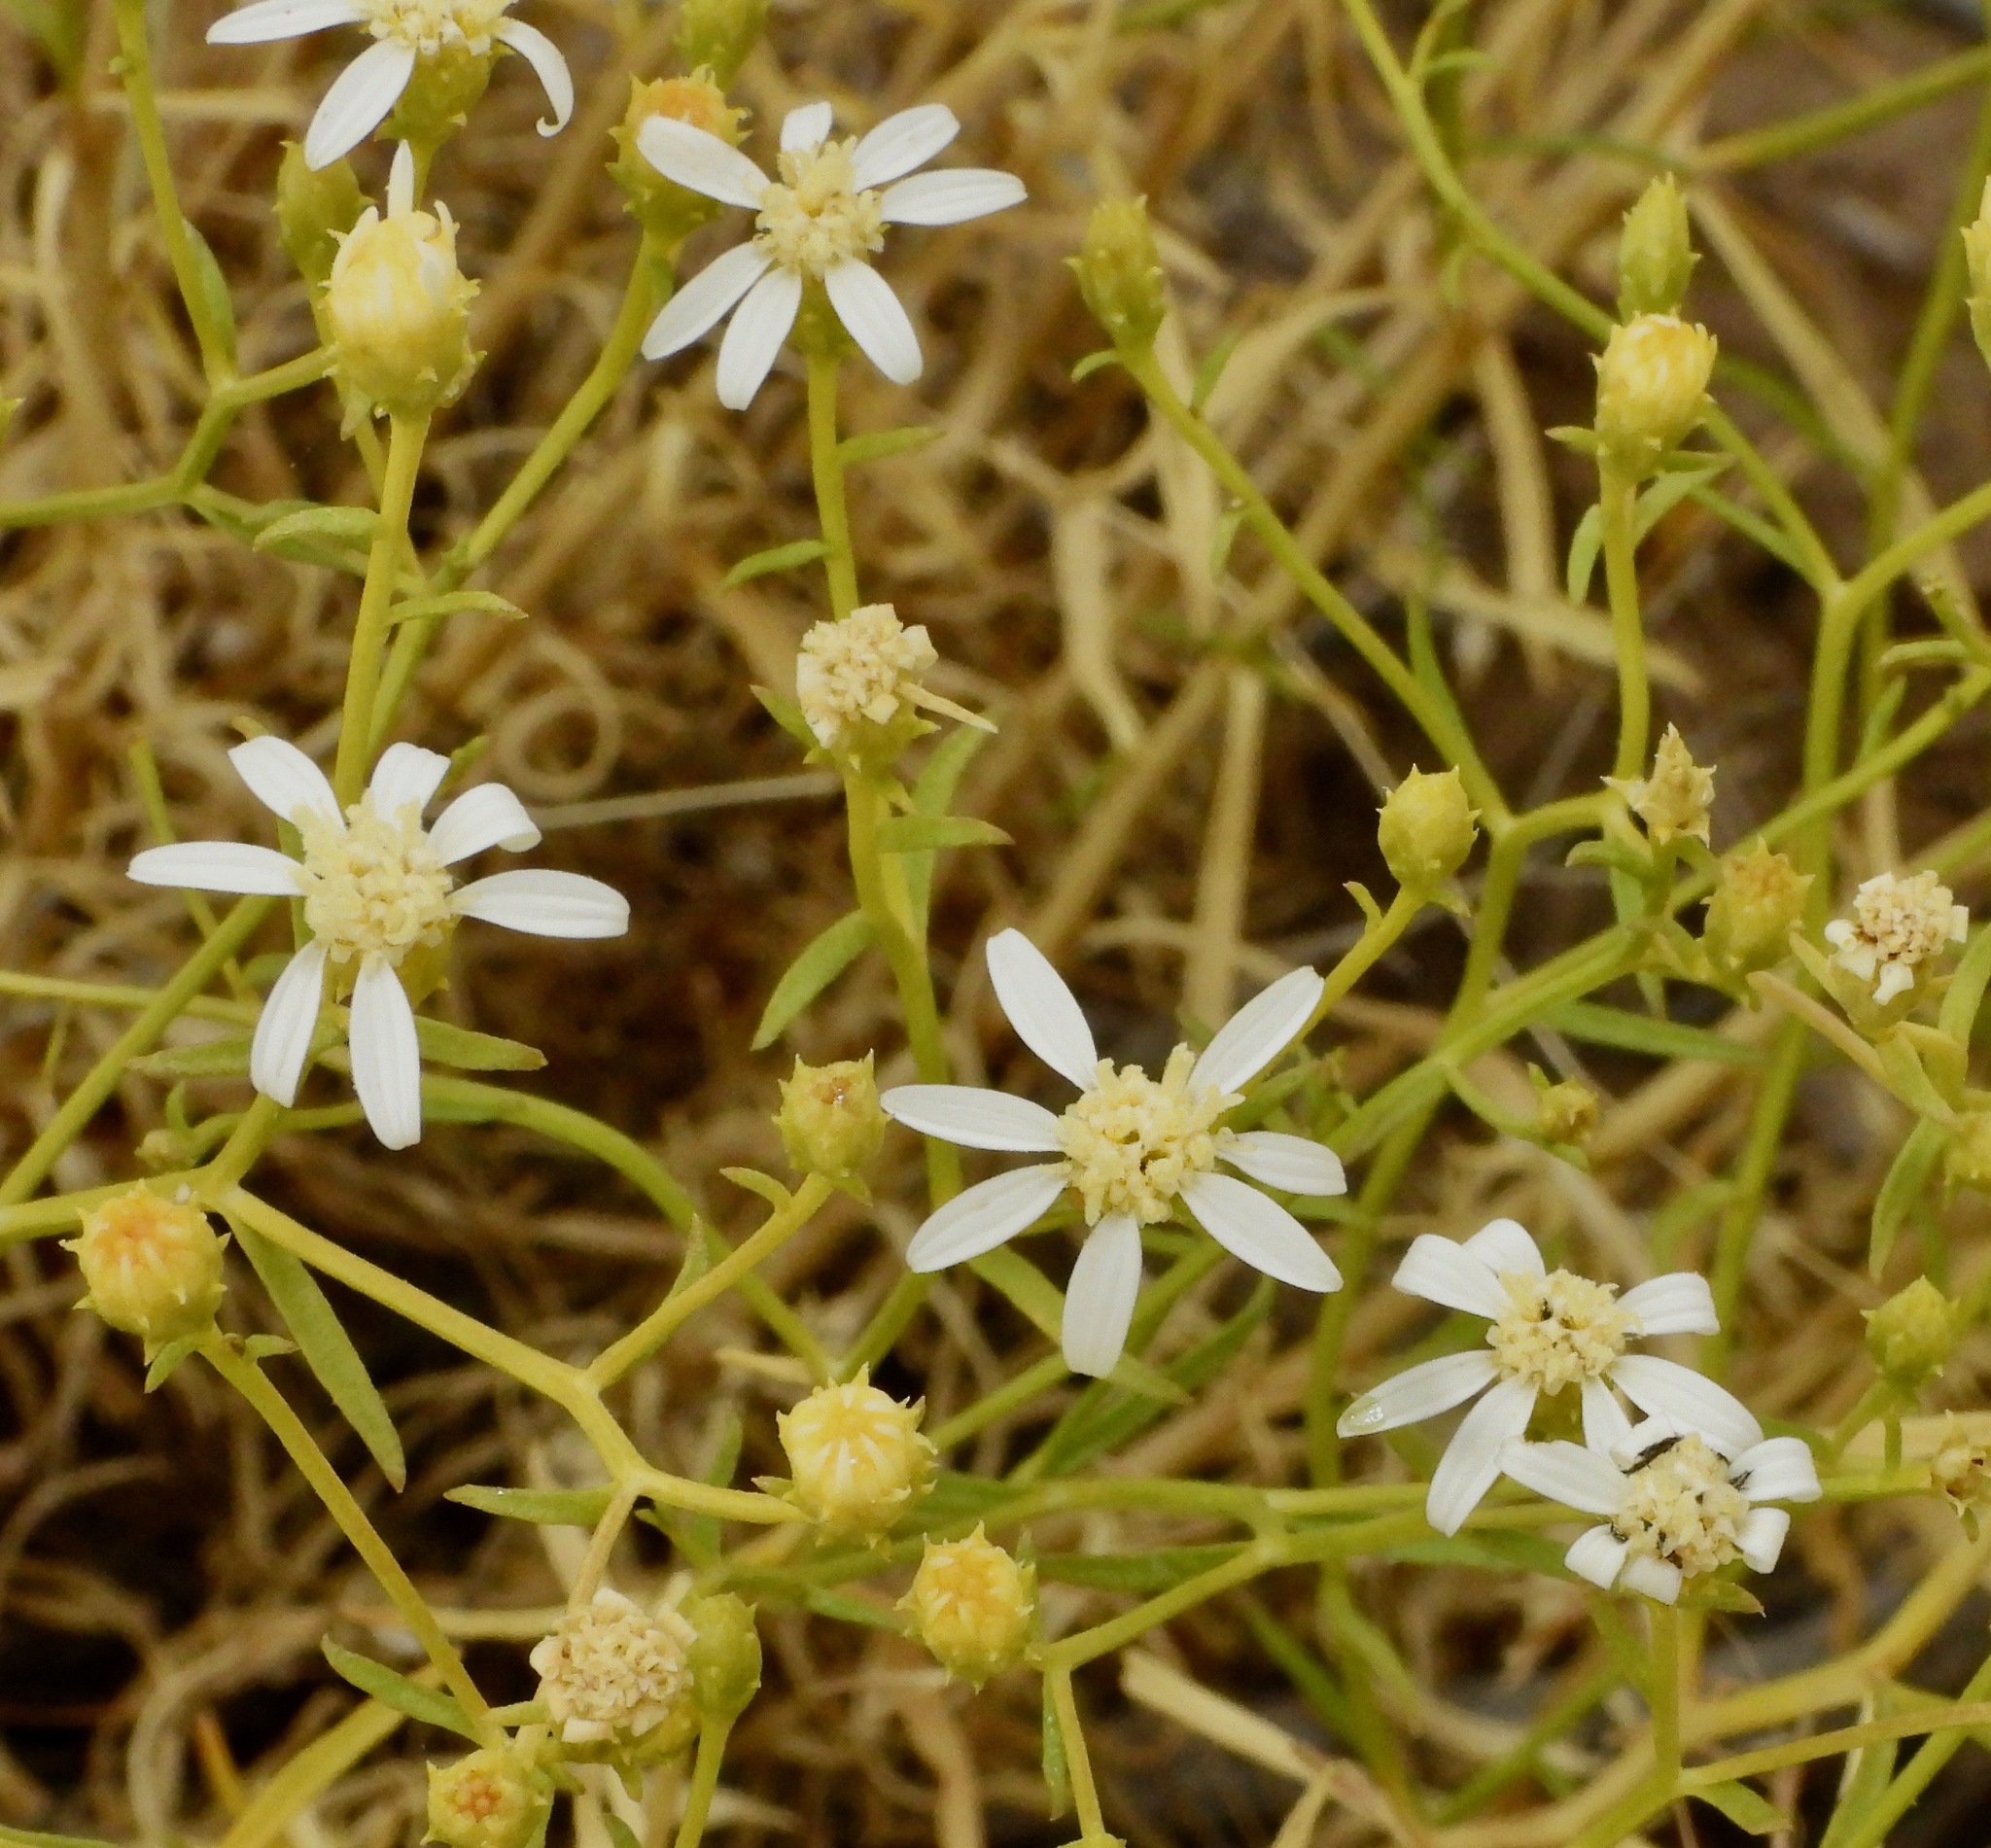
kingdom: Plantae
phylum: Tracheophyta
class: Magnoliopsida
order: Asterales
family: Asteraceae
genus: Gutierrezia
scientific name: Gutierrezia solbrigii
